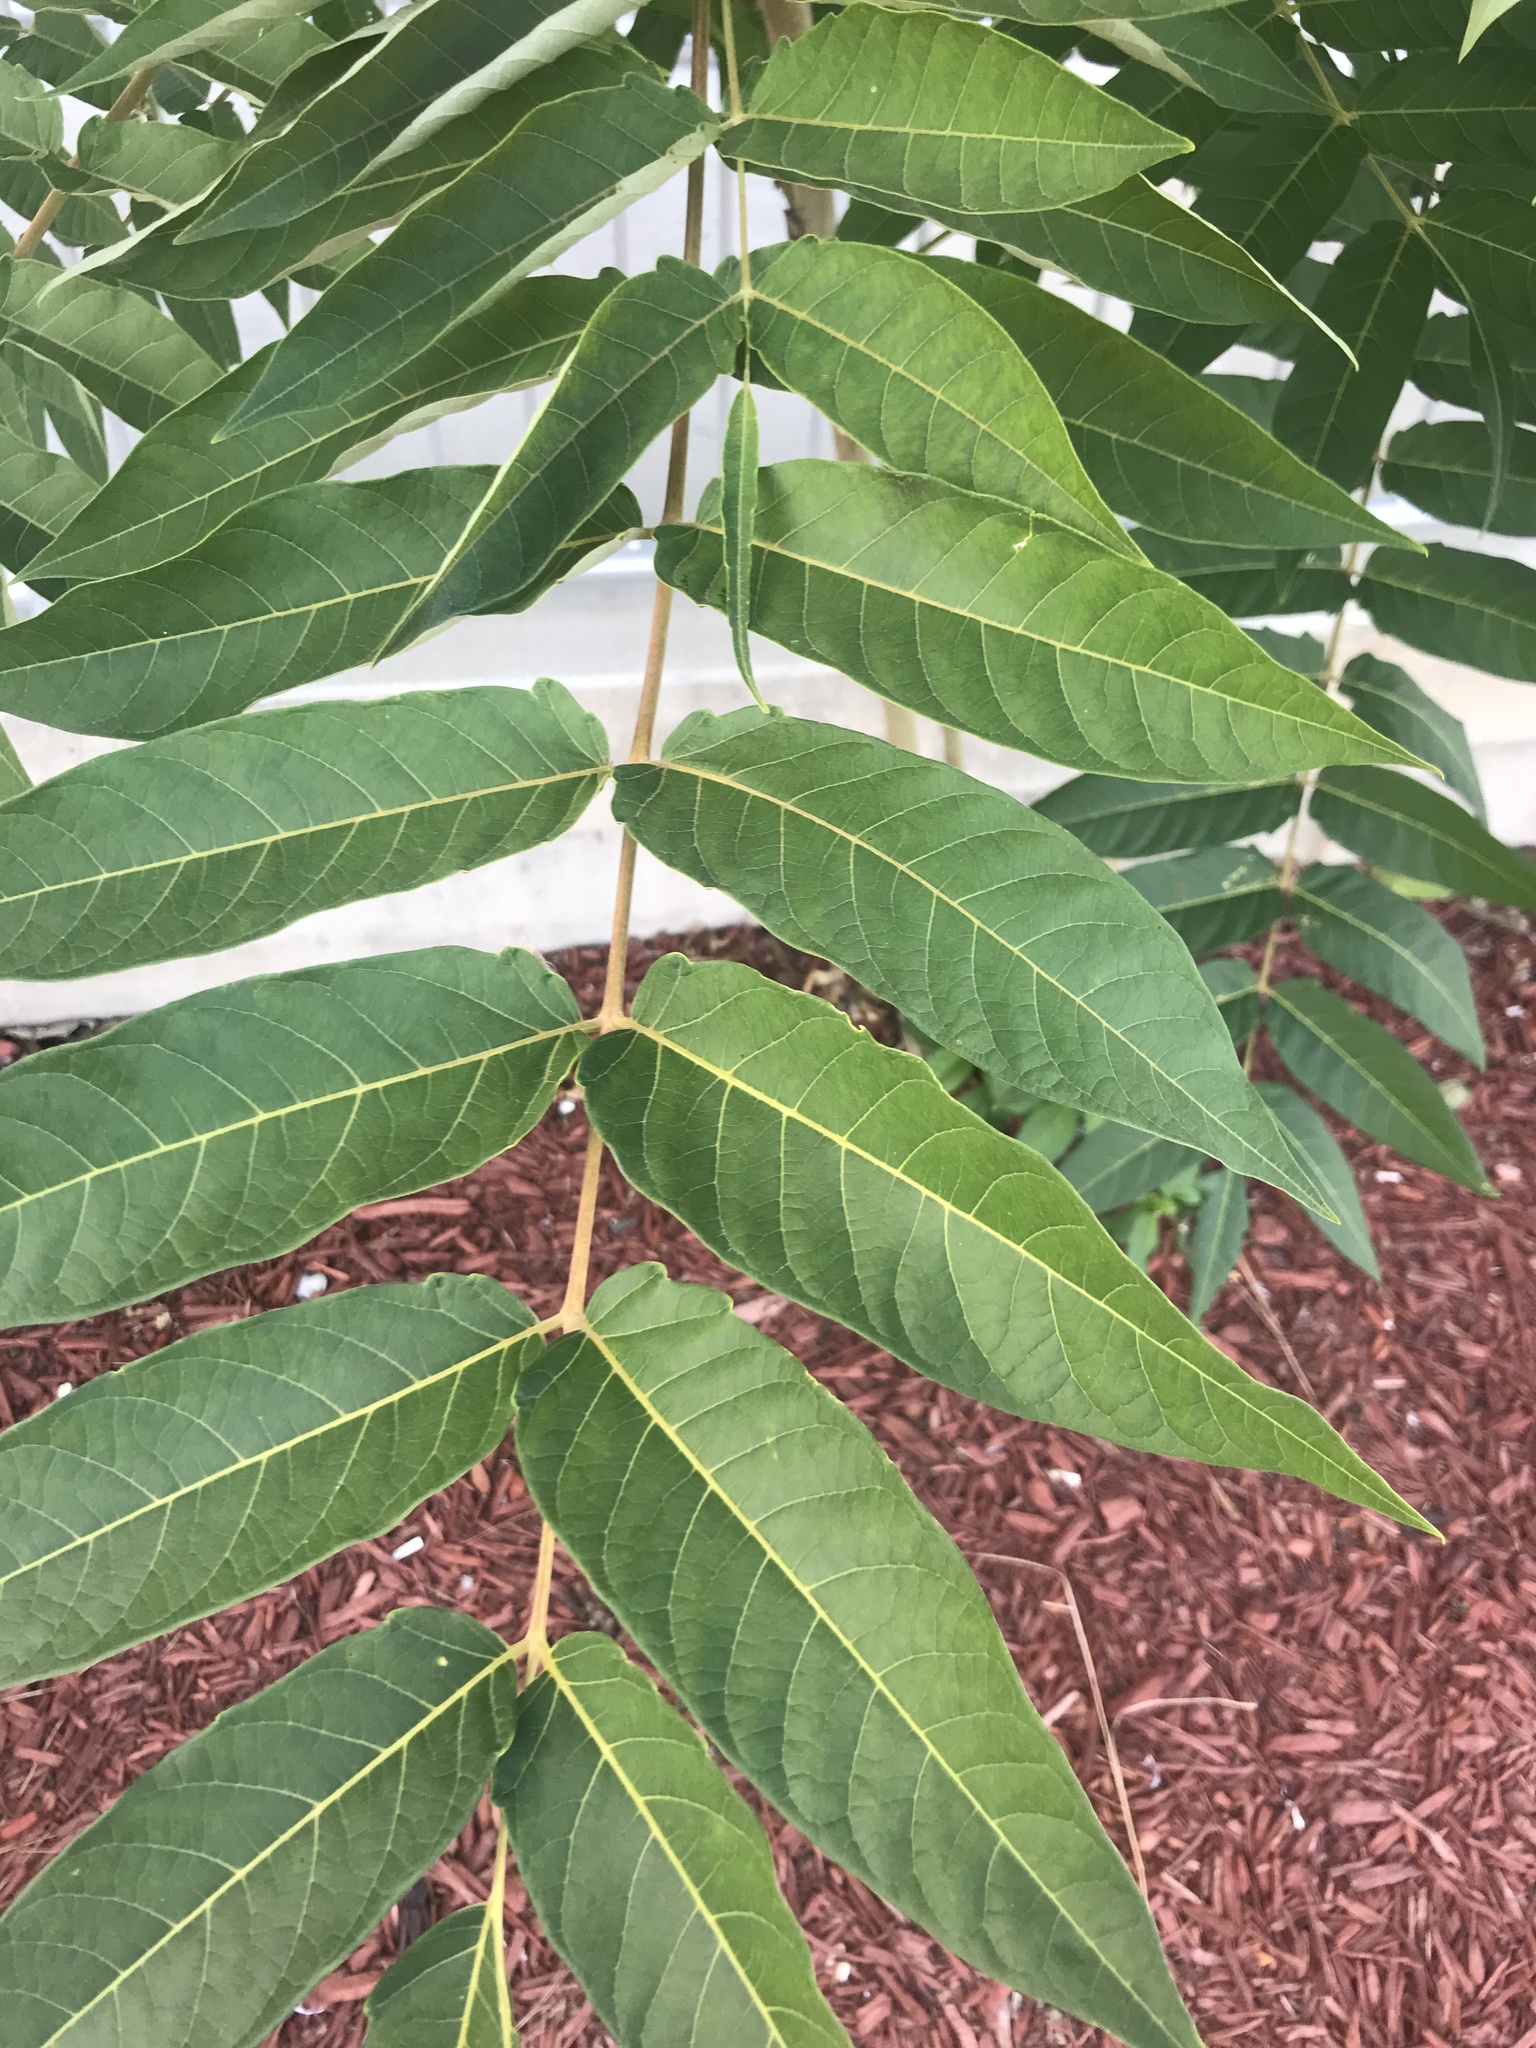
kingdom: Plantae
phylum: Tracheophyta
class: Magnoliopsida
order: Sapindales
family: Simaroubaceae
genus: Ailanthus
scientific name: Ailanthus altissima
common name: Tree-of-heaven
